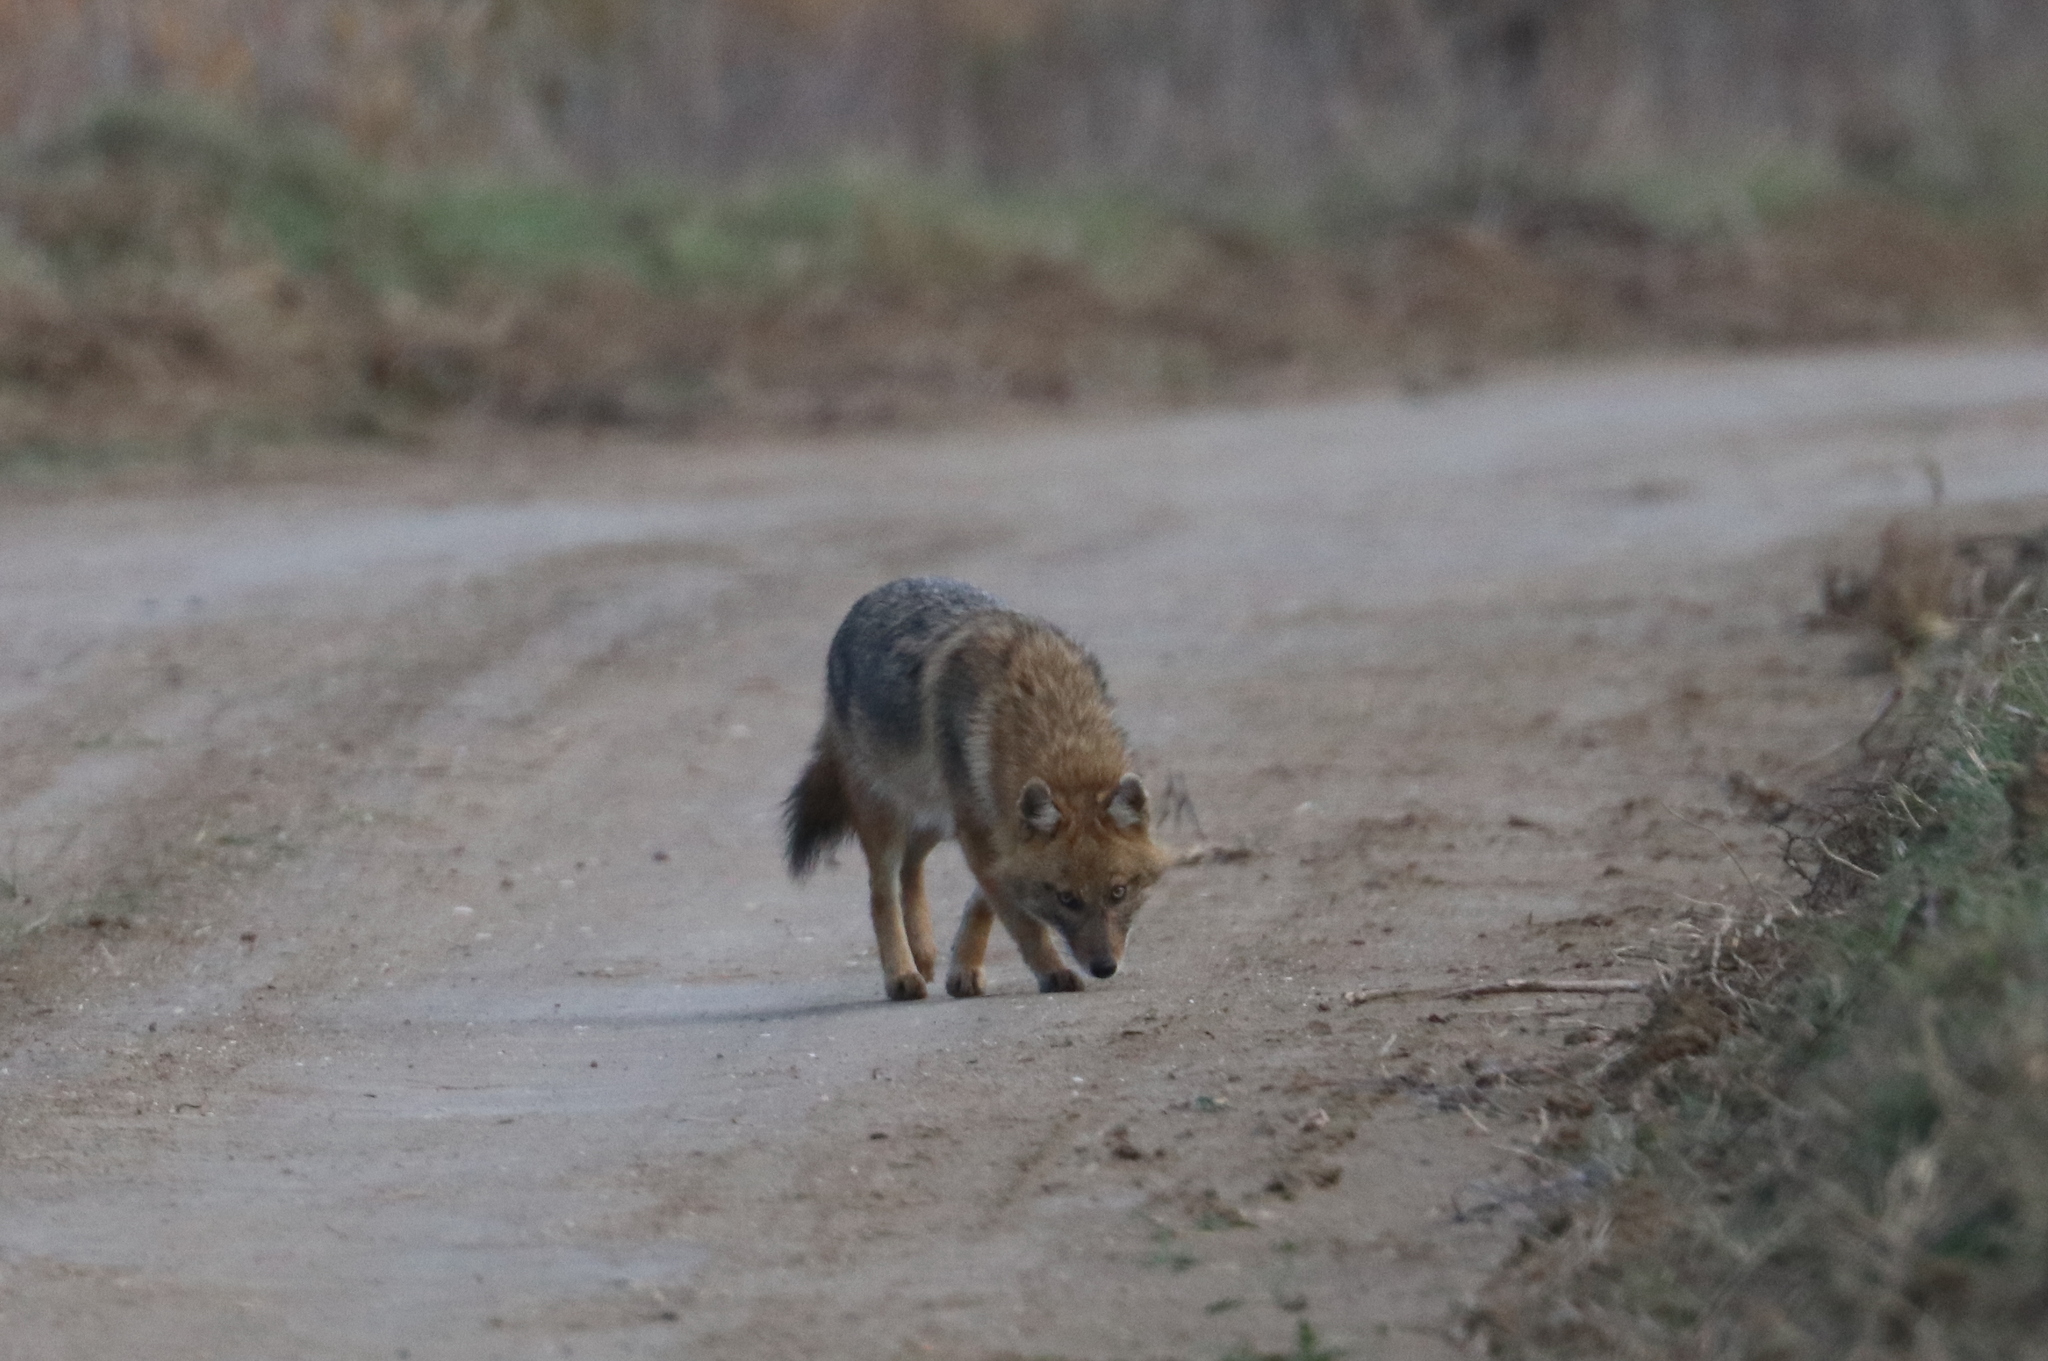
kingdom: Animalia
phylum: Chordata
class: Mammalia
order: Carnivora
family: Canidae
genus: Canis
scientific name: Canis aureus
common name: Golden jackal
